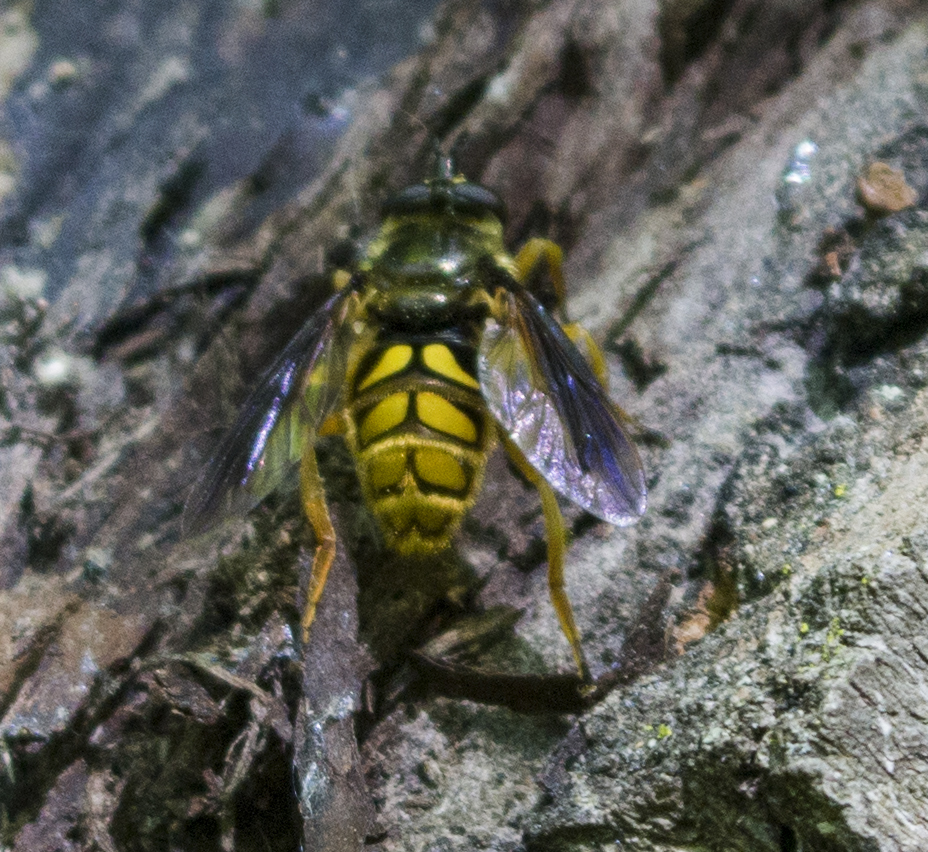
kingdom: Animalia
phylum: Arthropoda
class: Insecta
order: Diptera
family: Syrphidae
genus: Somula
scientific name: Somula decora
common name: Spotted wood fly
